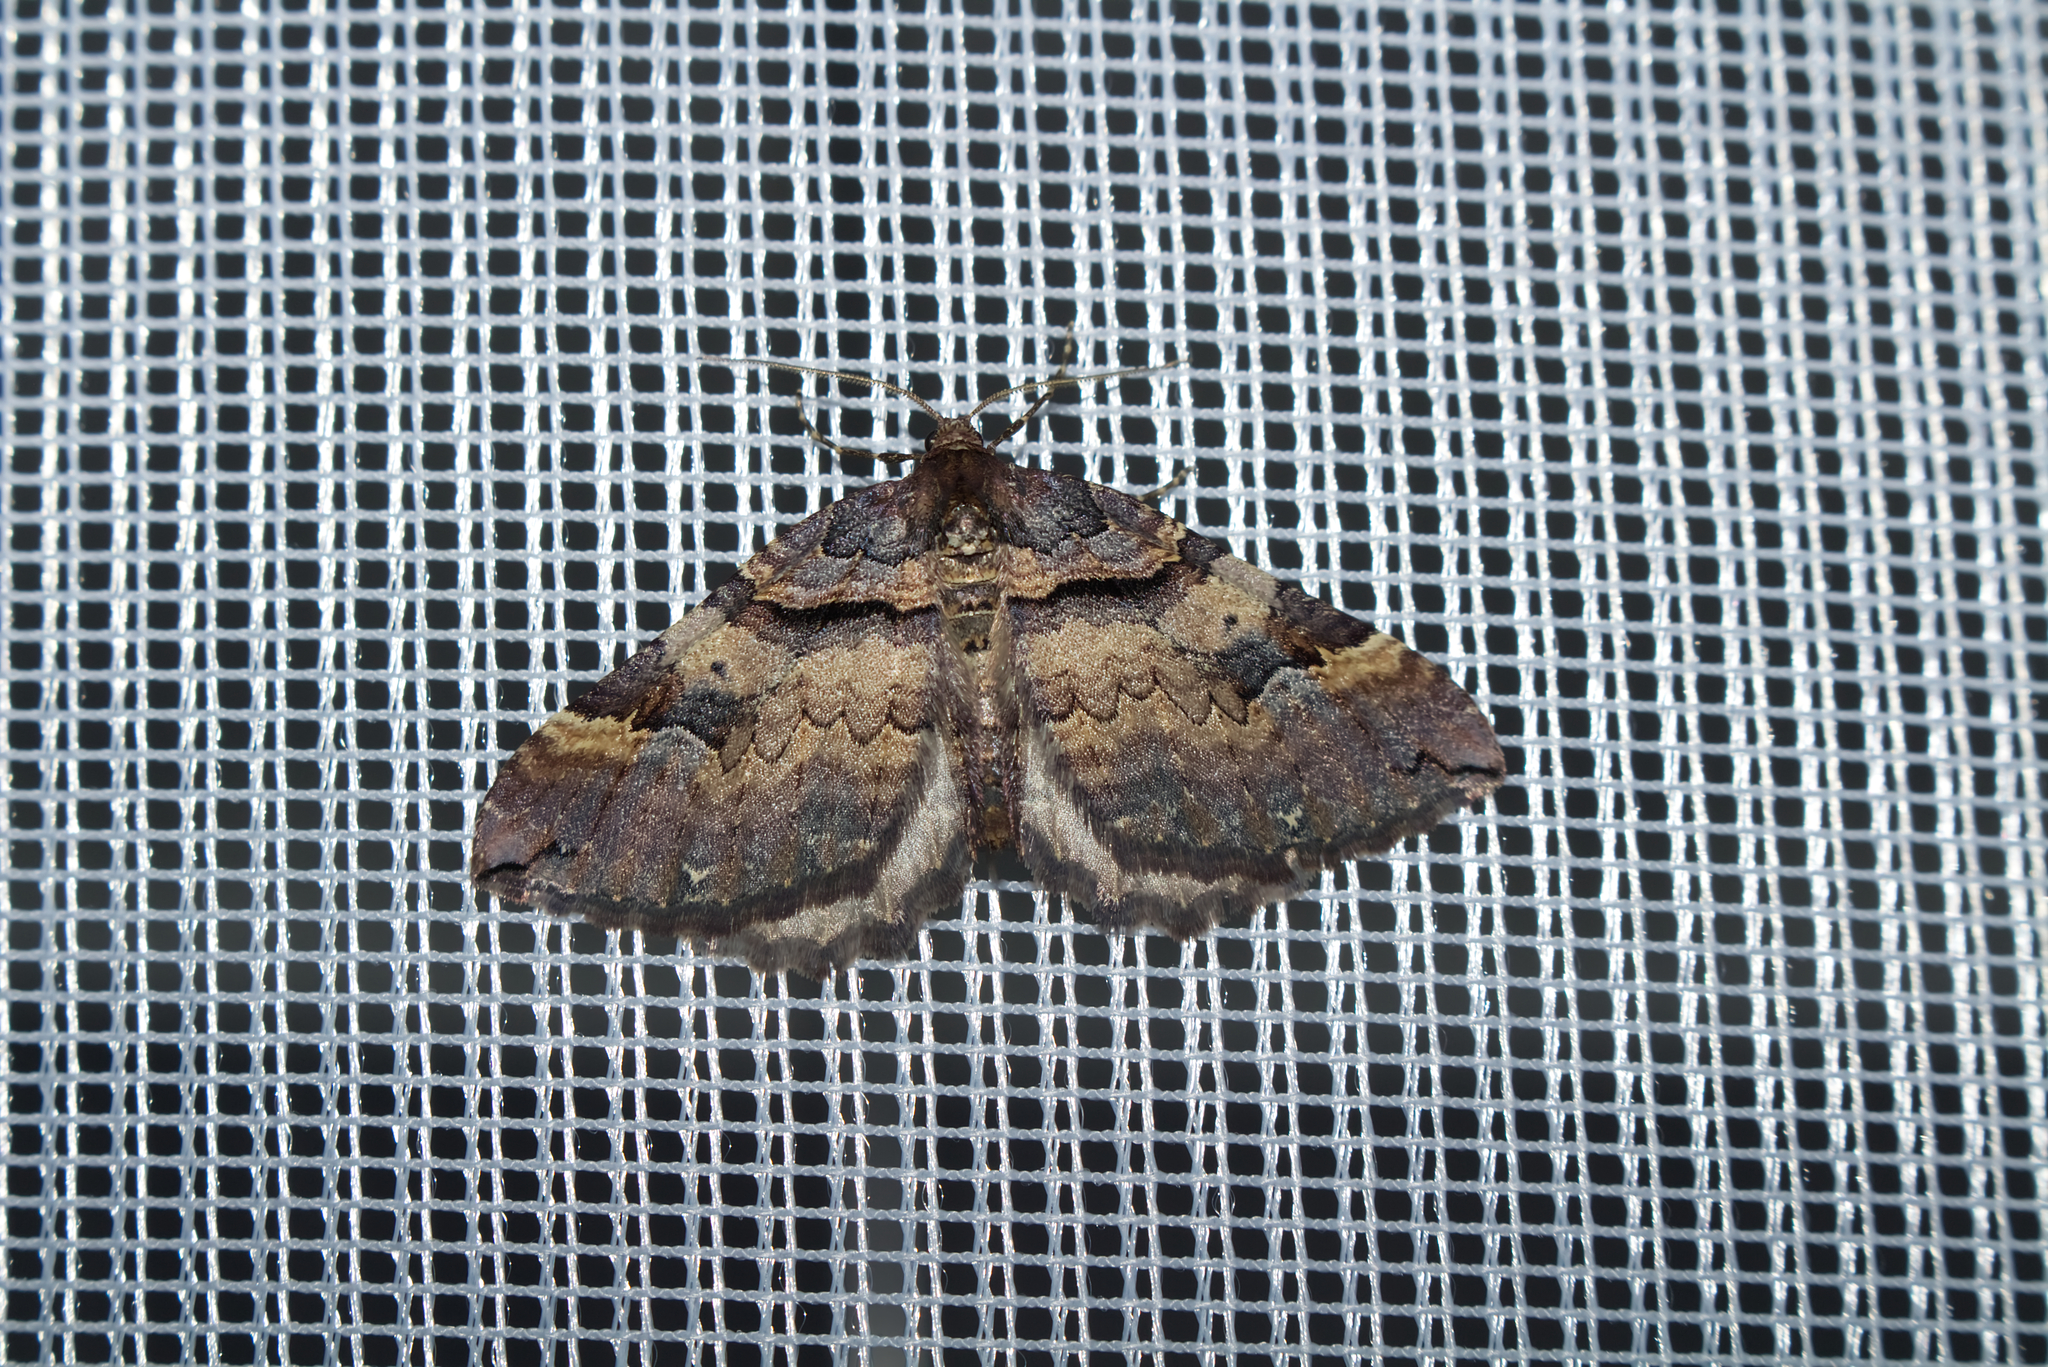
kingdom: Animalia
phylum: Arthropoda
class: Insecta
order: Lepidoptera
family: Geometridae
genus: Anticlea
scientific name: Anticlea badiata
